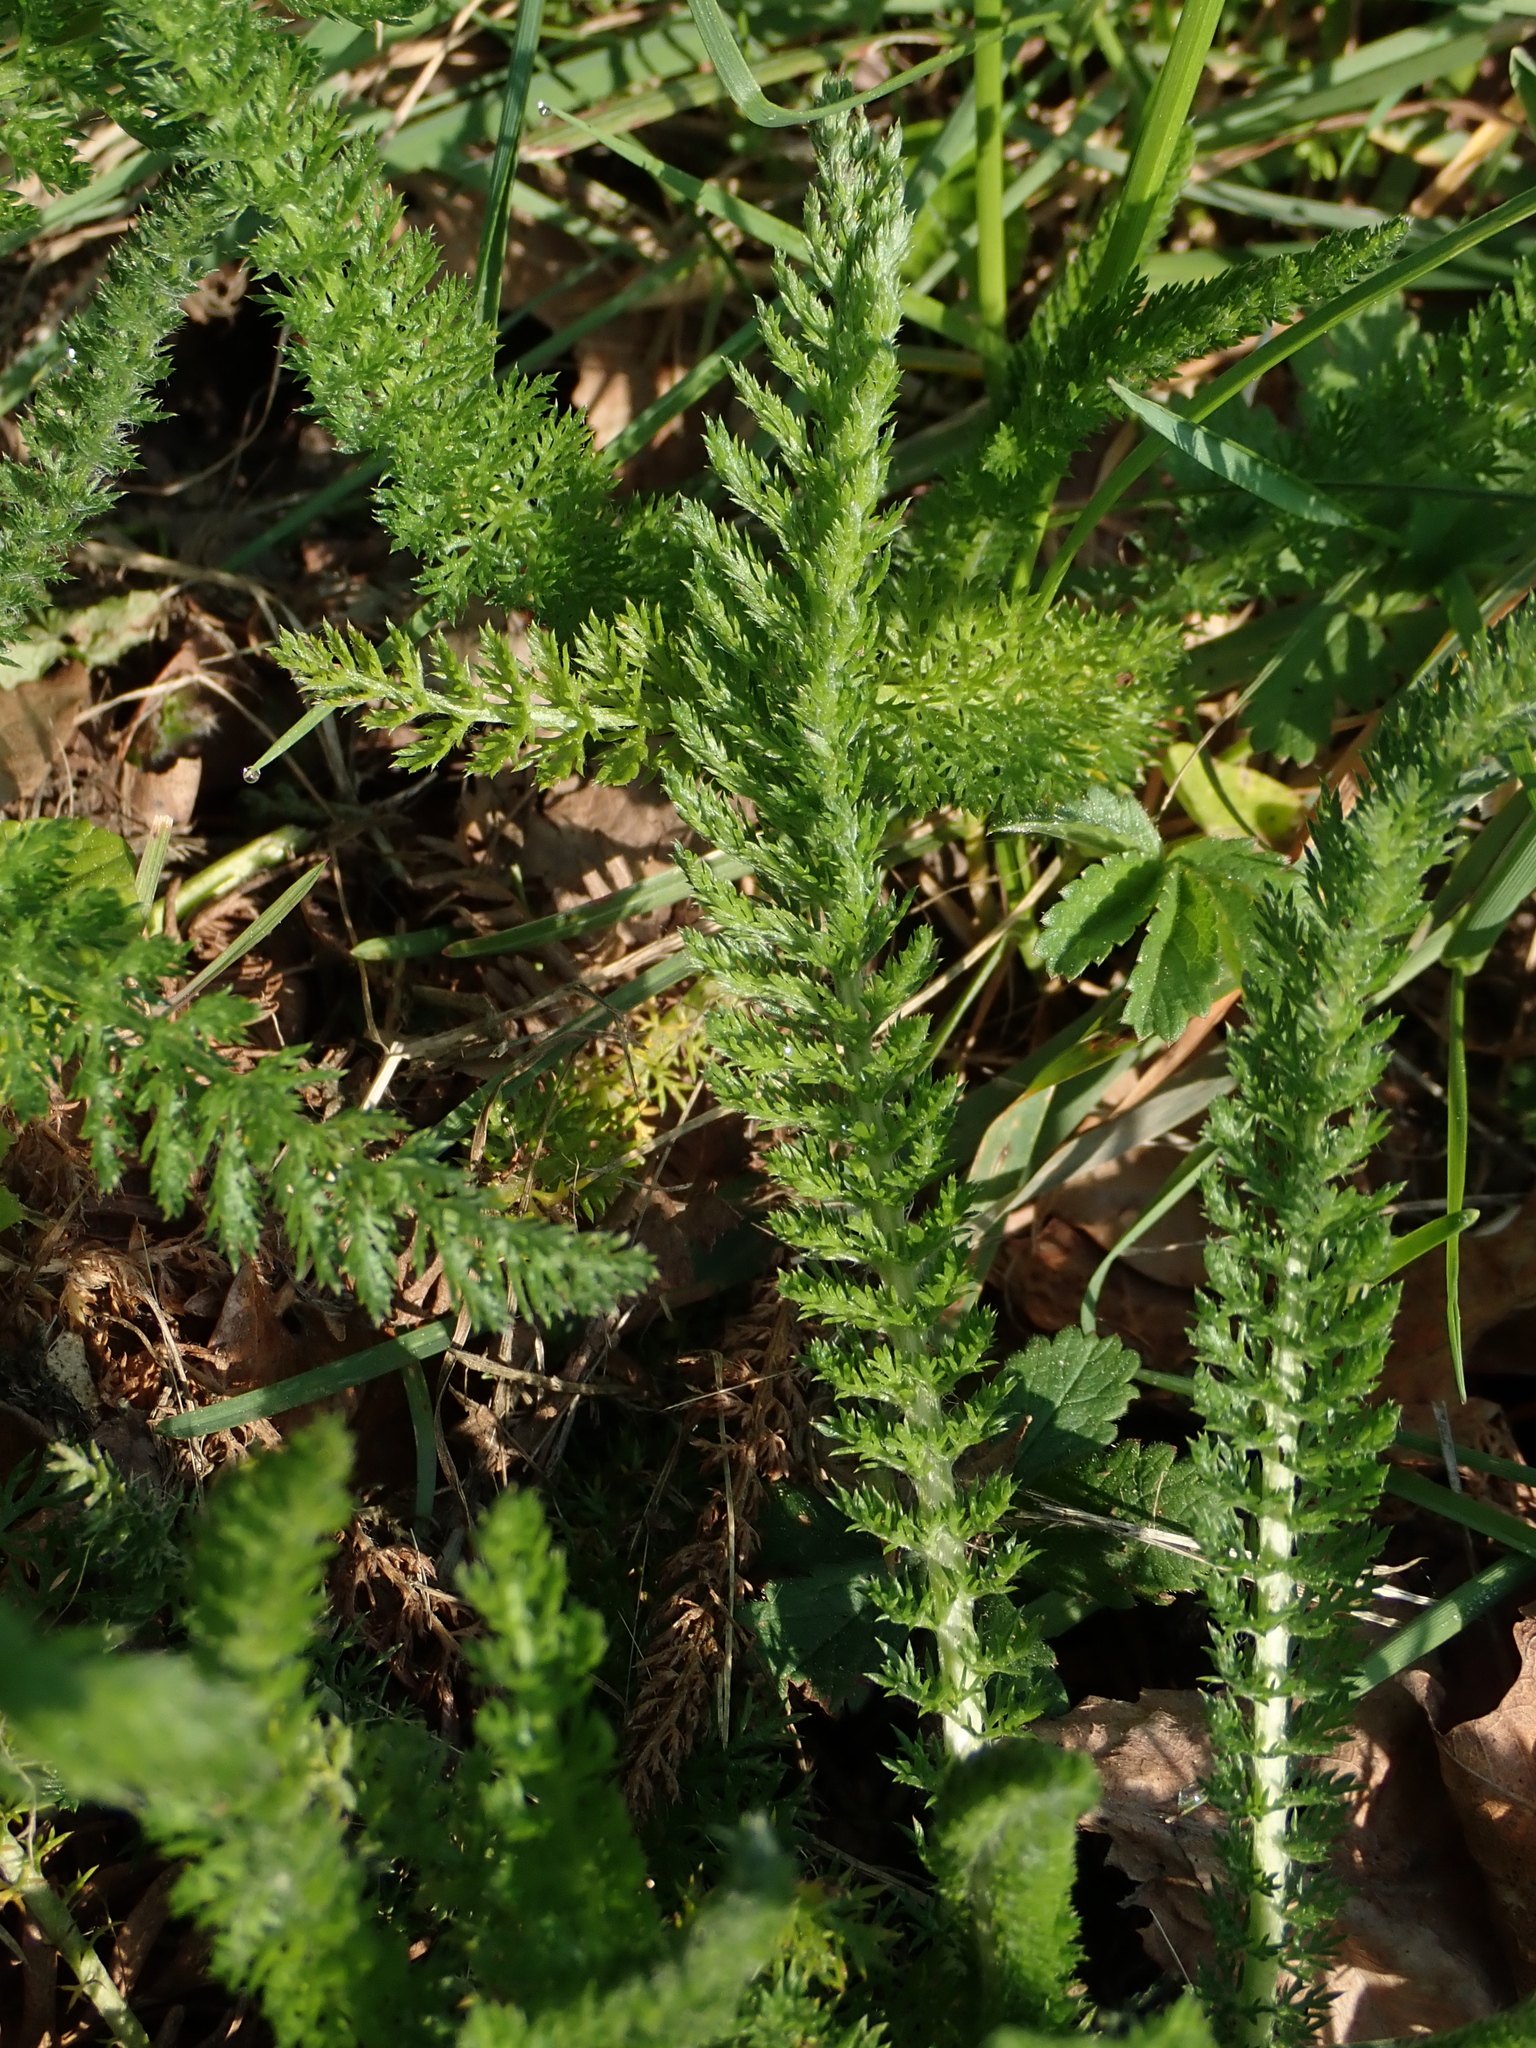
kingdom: Plantae
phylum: Tracheophyta
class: Magnoliopsida
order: Asterales
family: Asteraceae
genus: Achillea
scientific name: Achillea millefolium
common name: Yarrow
